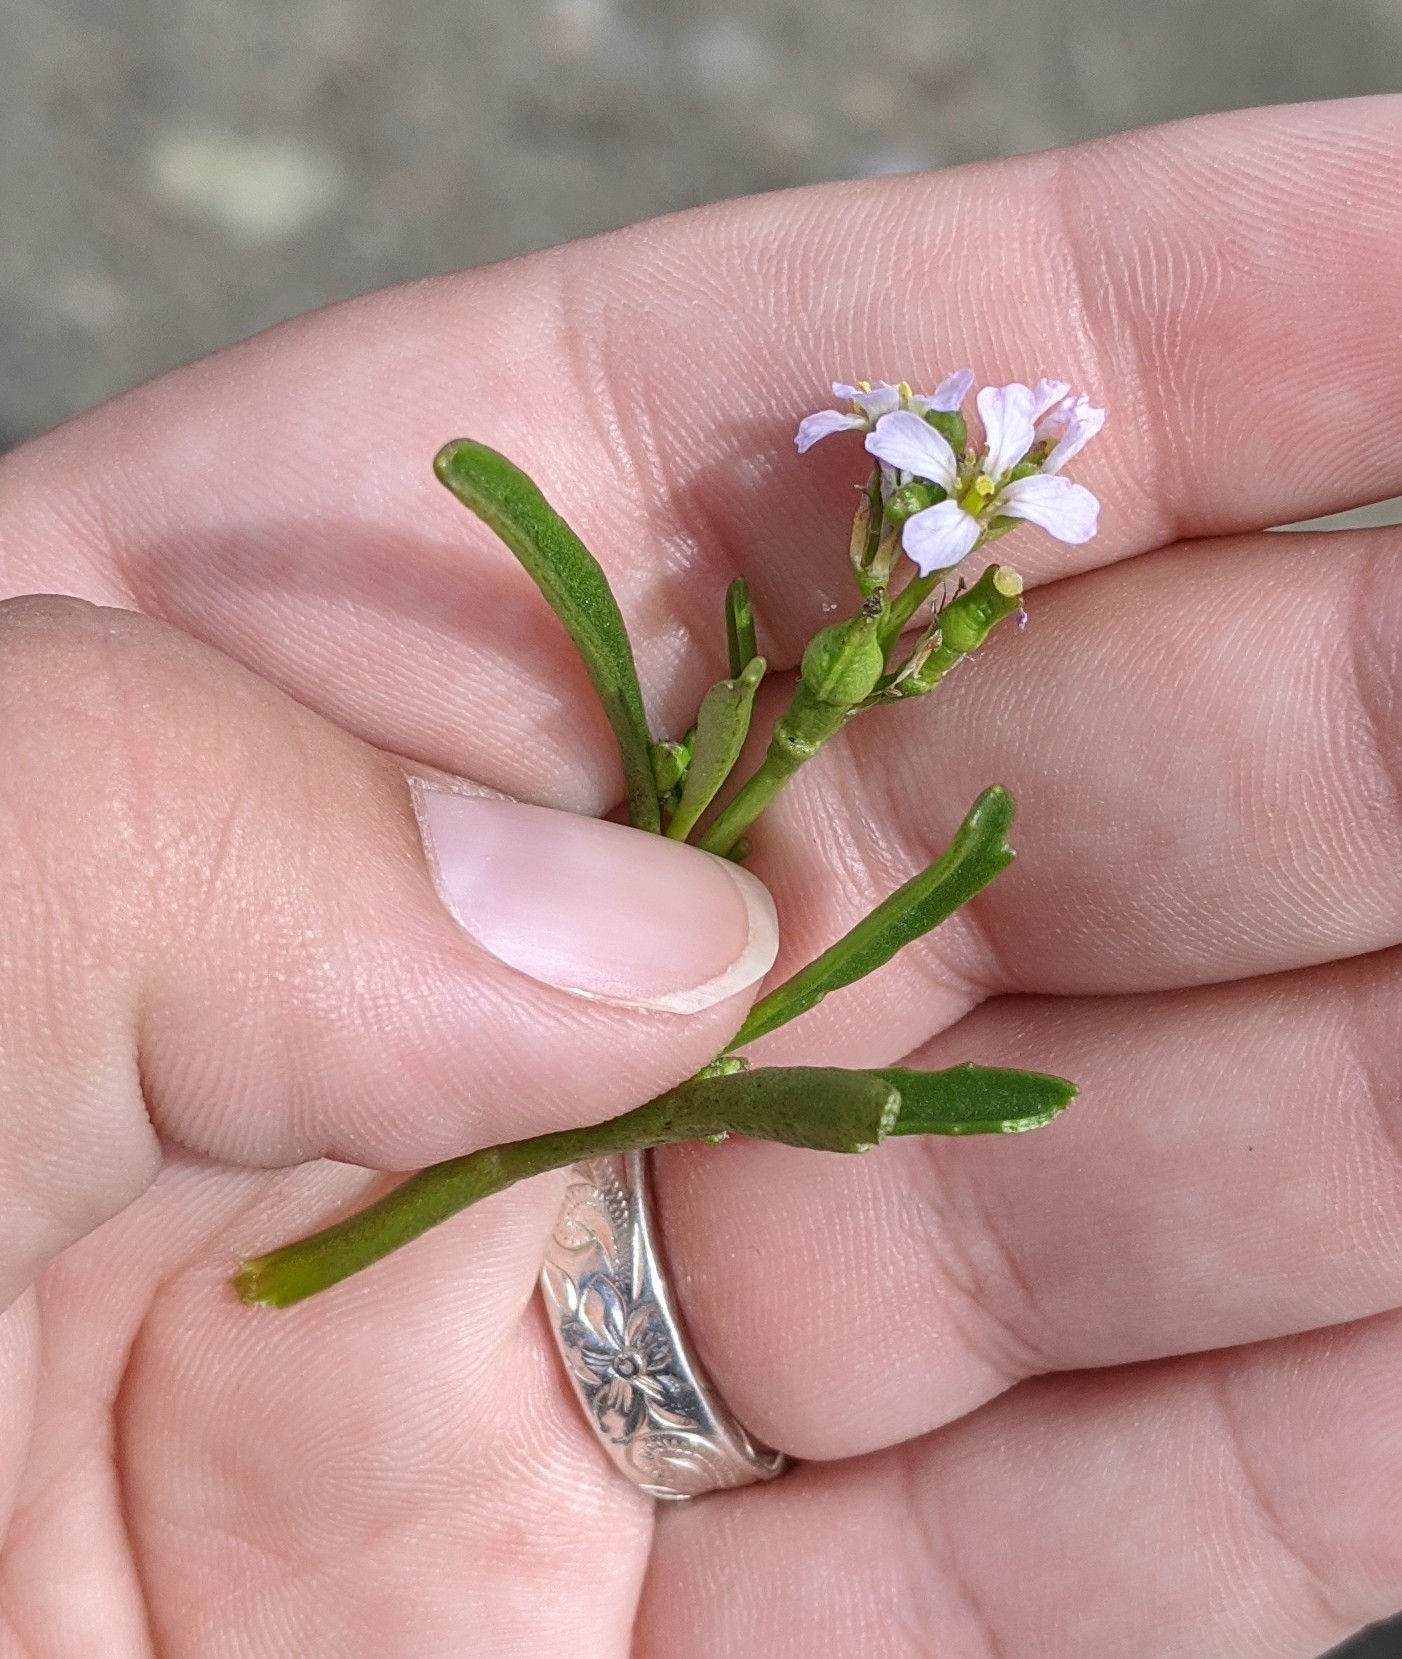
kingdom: Plantae
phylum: Tracheophyta
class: Magnoliopsida
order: Brassicales
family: Brassicaceae
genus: Cakile
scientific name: Cakile edentula
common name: American sea rocket
